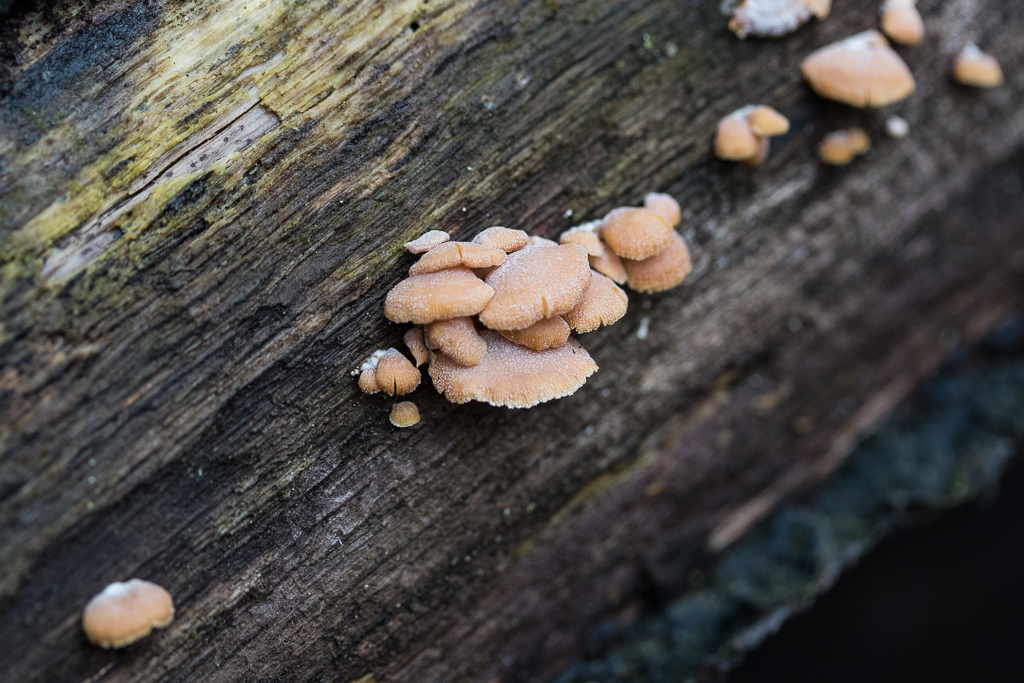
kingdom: Fungi
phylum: Basidiomycota
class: Agaricomycetes
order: Agaricales
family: Mycenaceae
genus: Panellus
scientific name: Panellus stipticus
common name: Bitter oysterling
